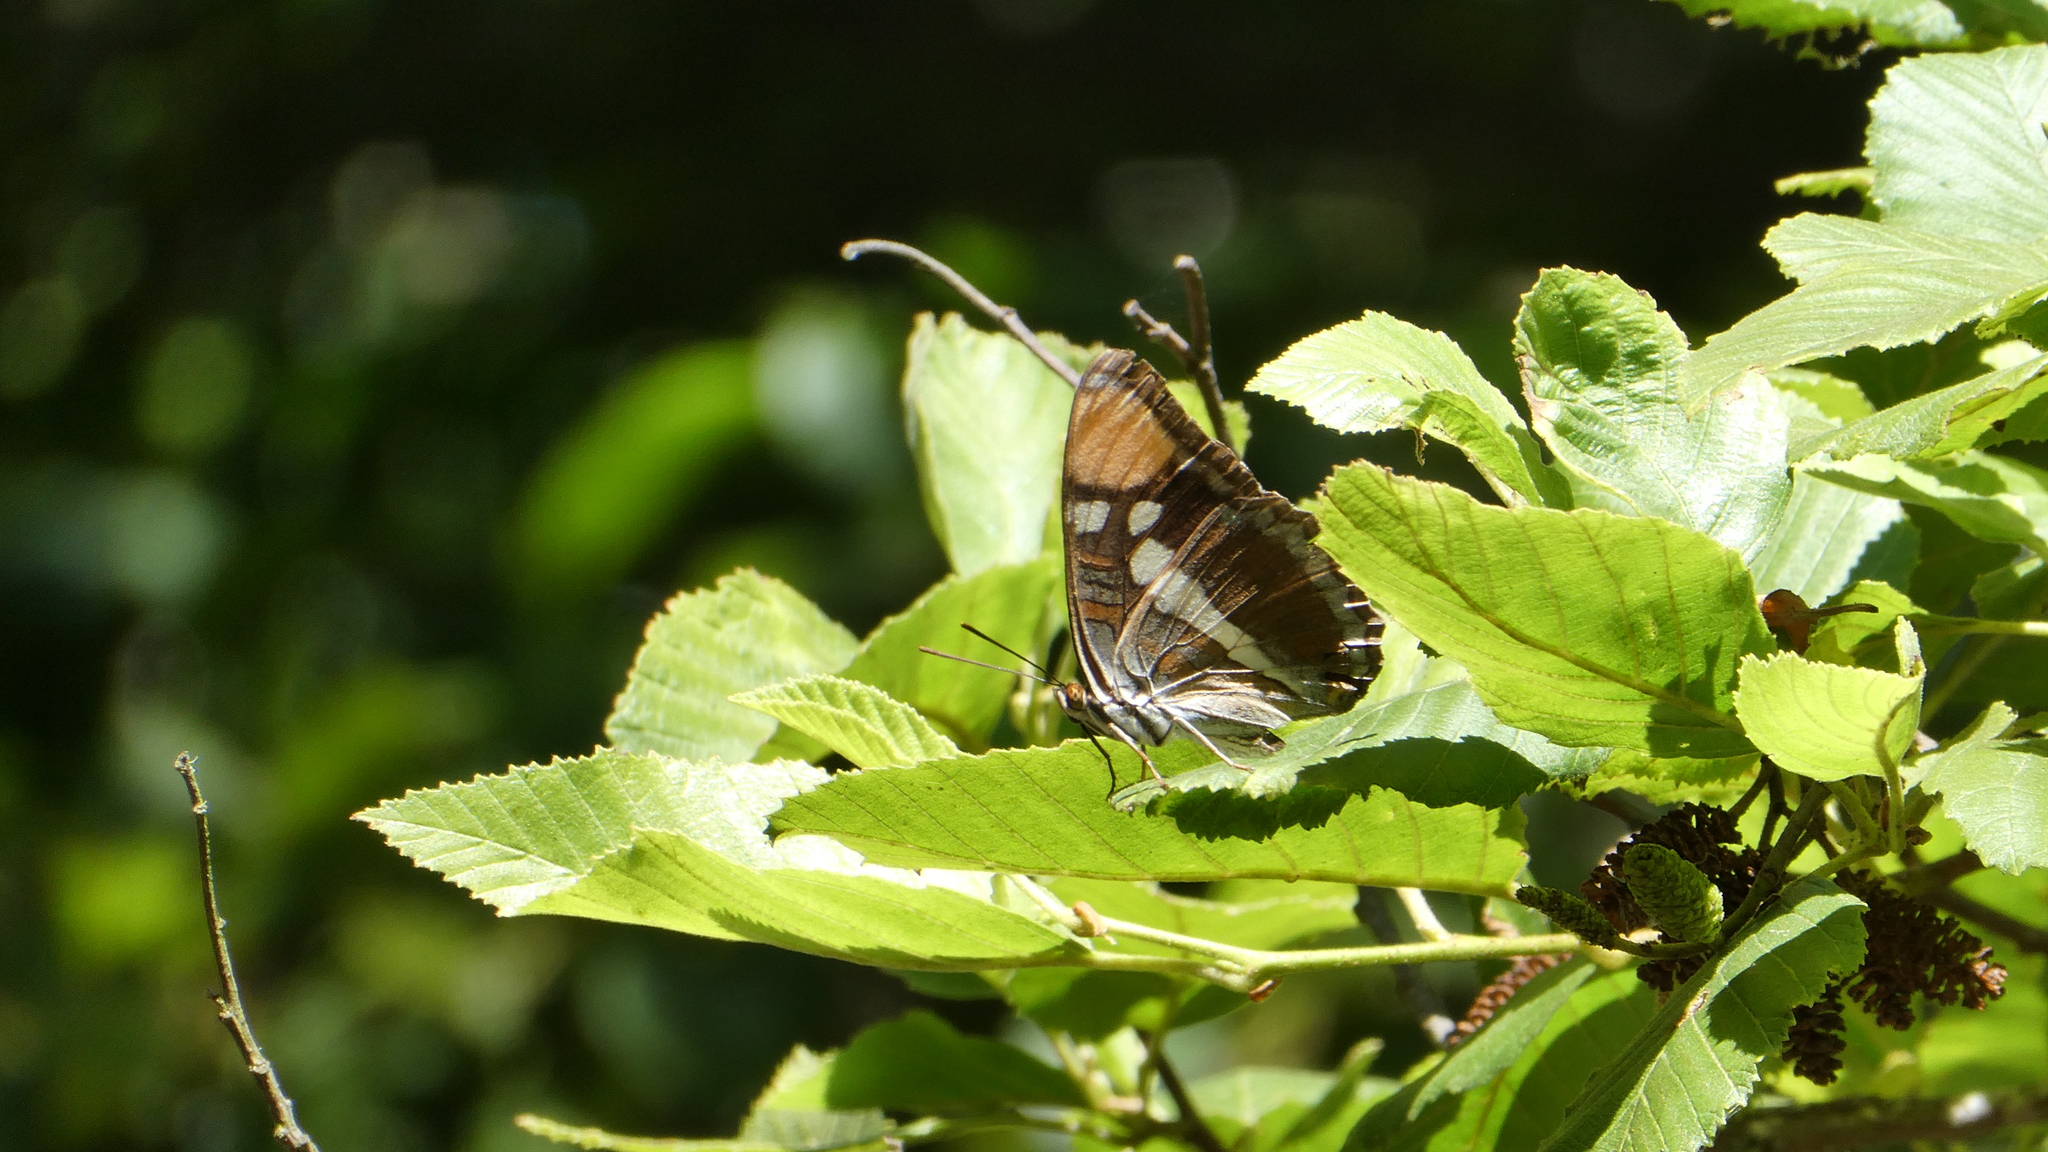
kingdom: Animalia
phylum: Arthropoda
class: Insecta
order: Lepidoptera
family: Nymphalidae
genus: Limenitis
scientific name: Limenitis bredowii
